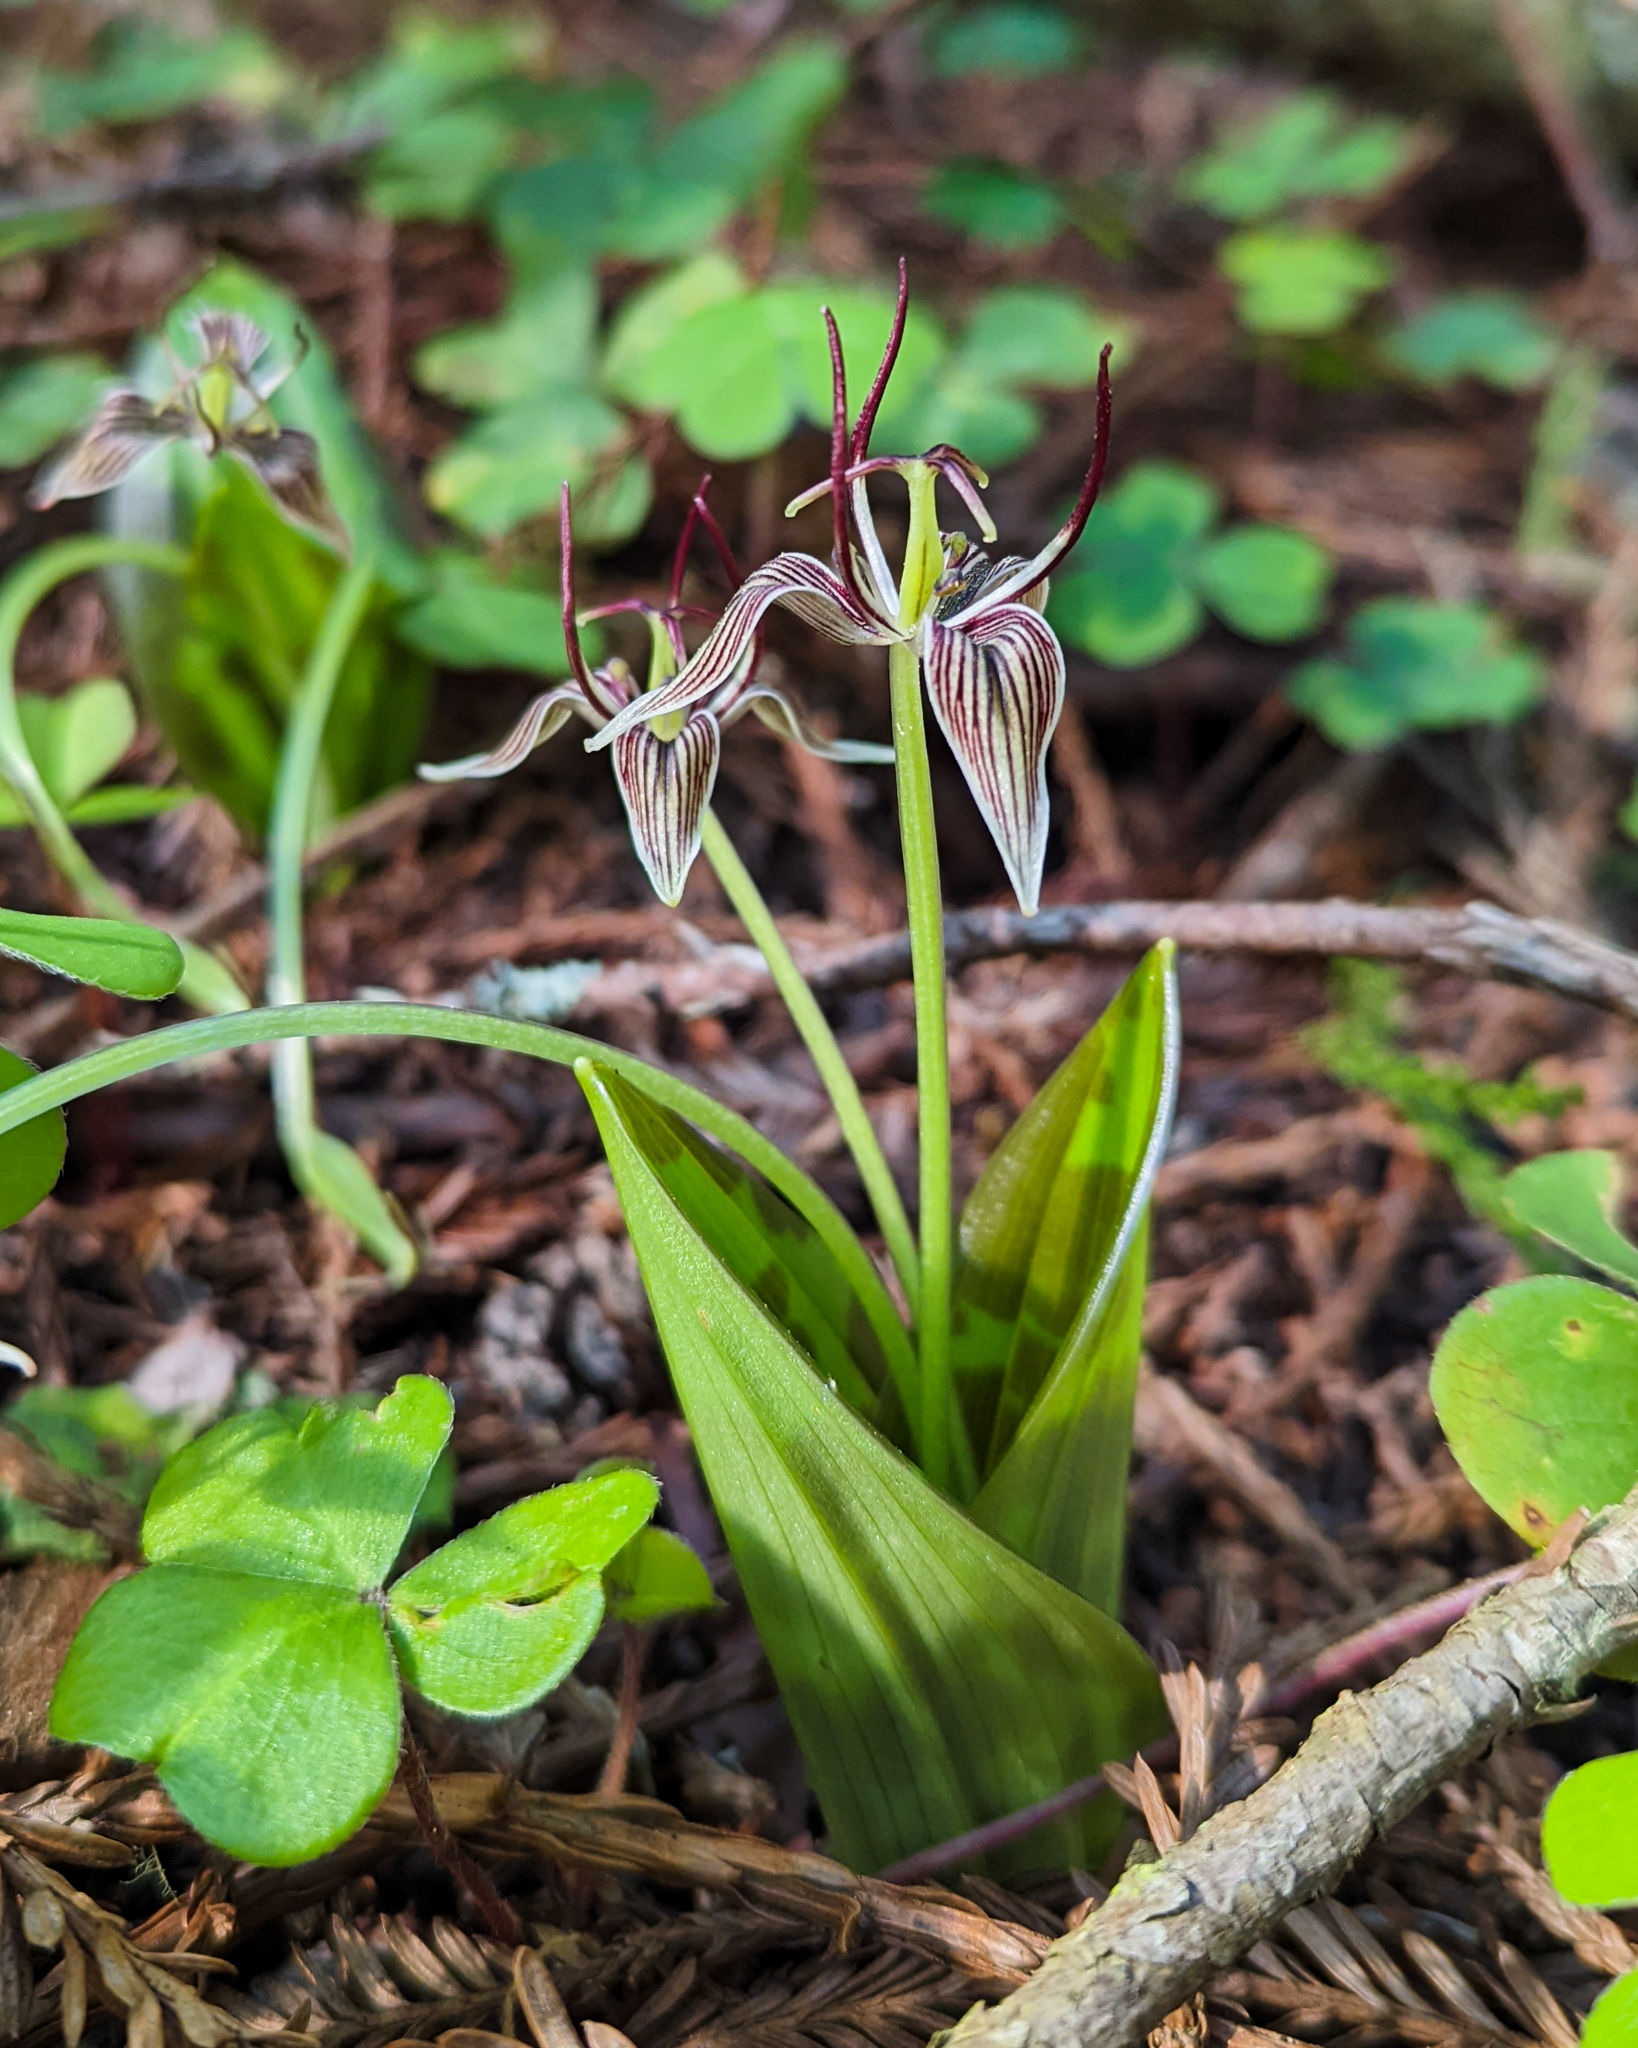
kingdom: Plantae
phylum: Tracheophyta
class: Liliopsida
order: Liliales
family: Liliaceae
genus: Scoliopus
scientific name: Scoliopus bigelovii
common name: Foetid adder's-tongue
